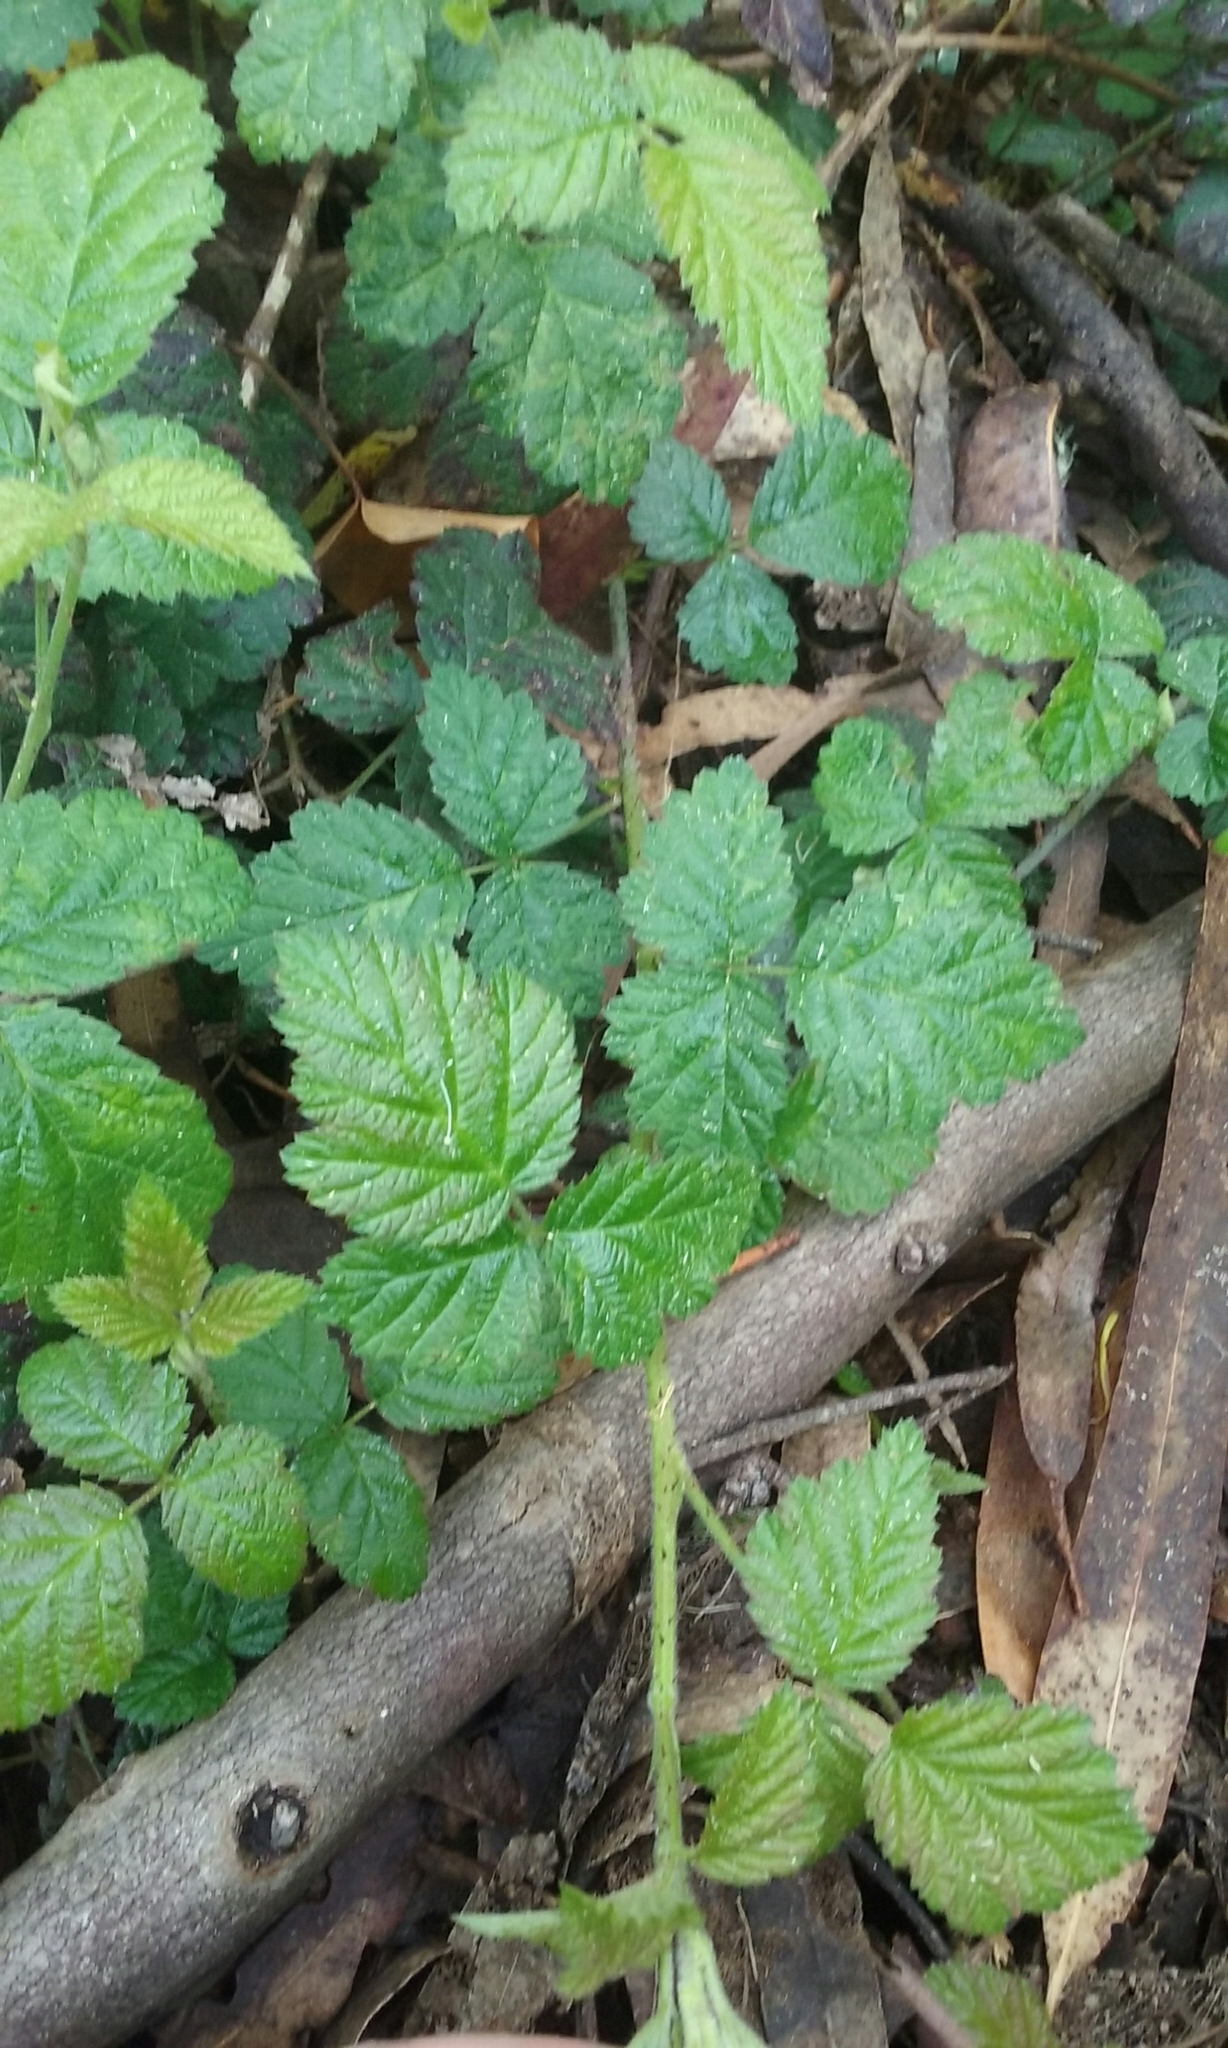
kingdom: Plantae
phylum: Tracheophyta
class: Magnoliopsida
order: Rosales
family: Rosaceae
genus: Rubus
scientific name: Rubus ursinus
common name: Pacific blackberry
